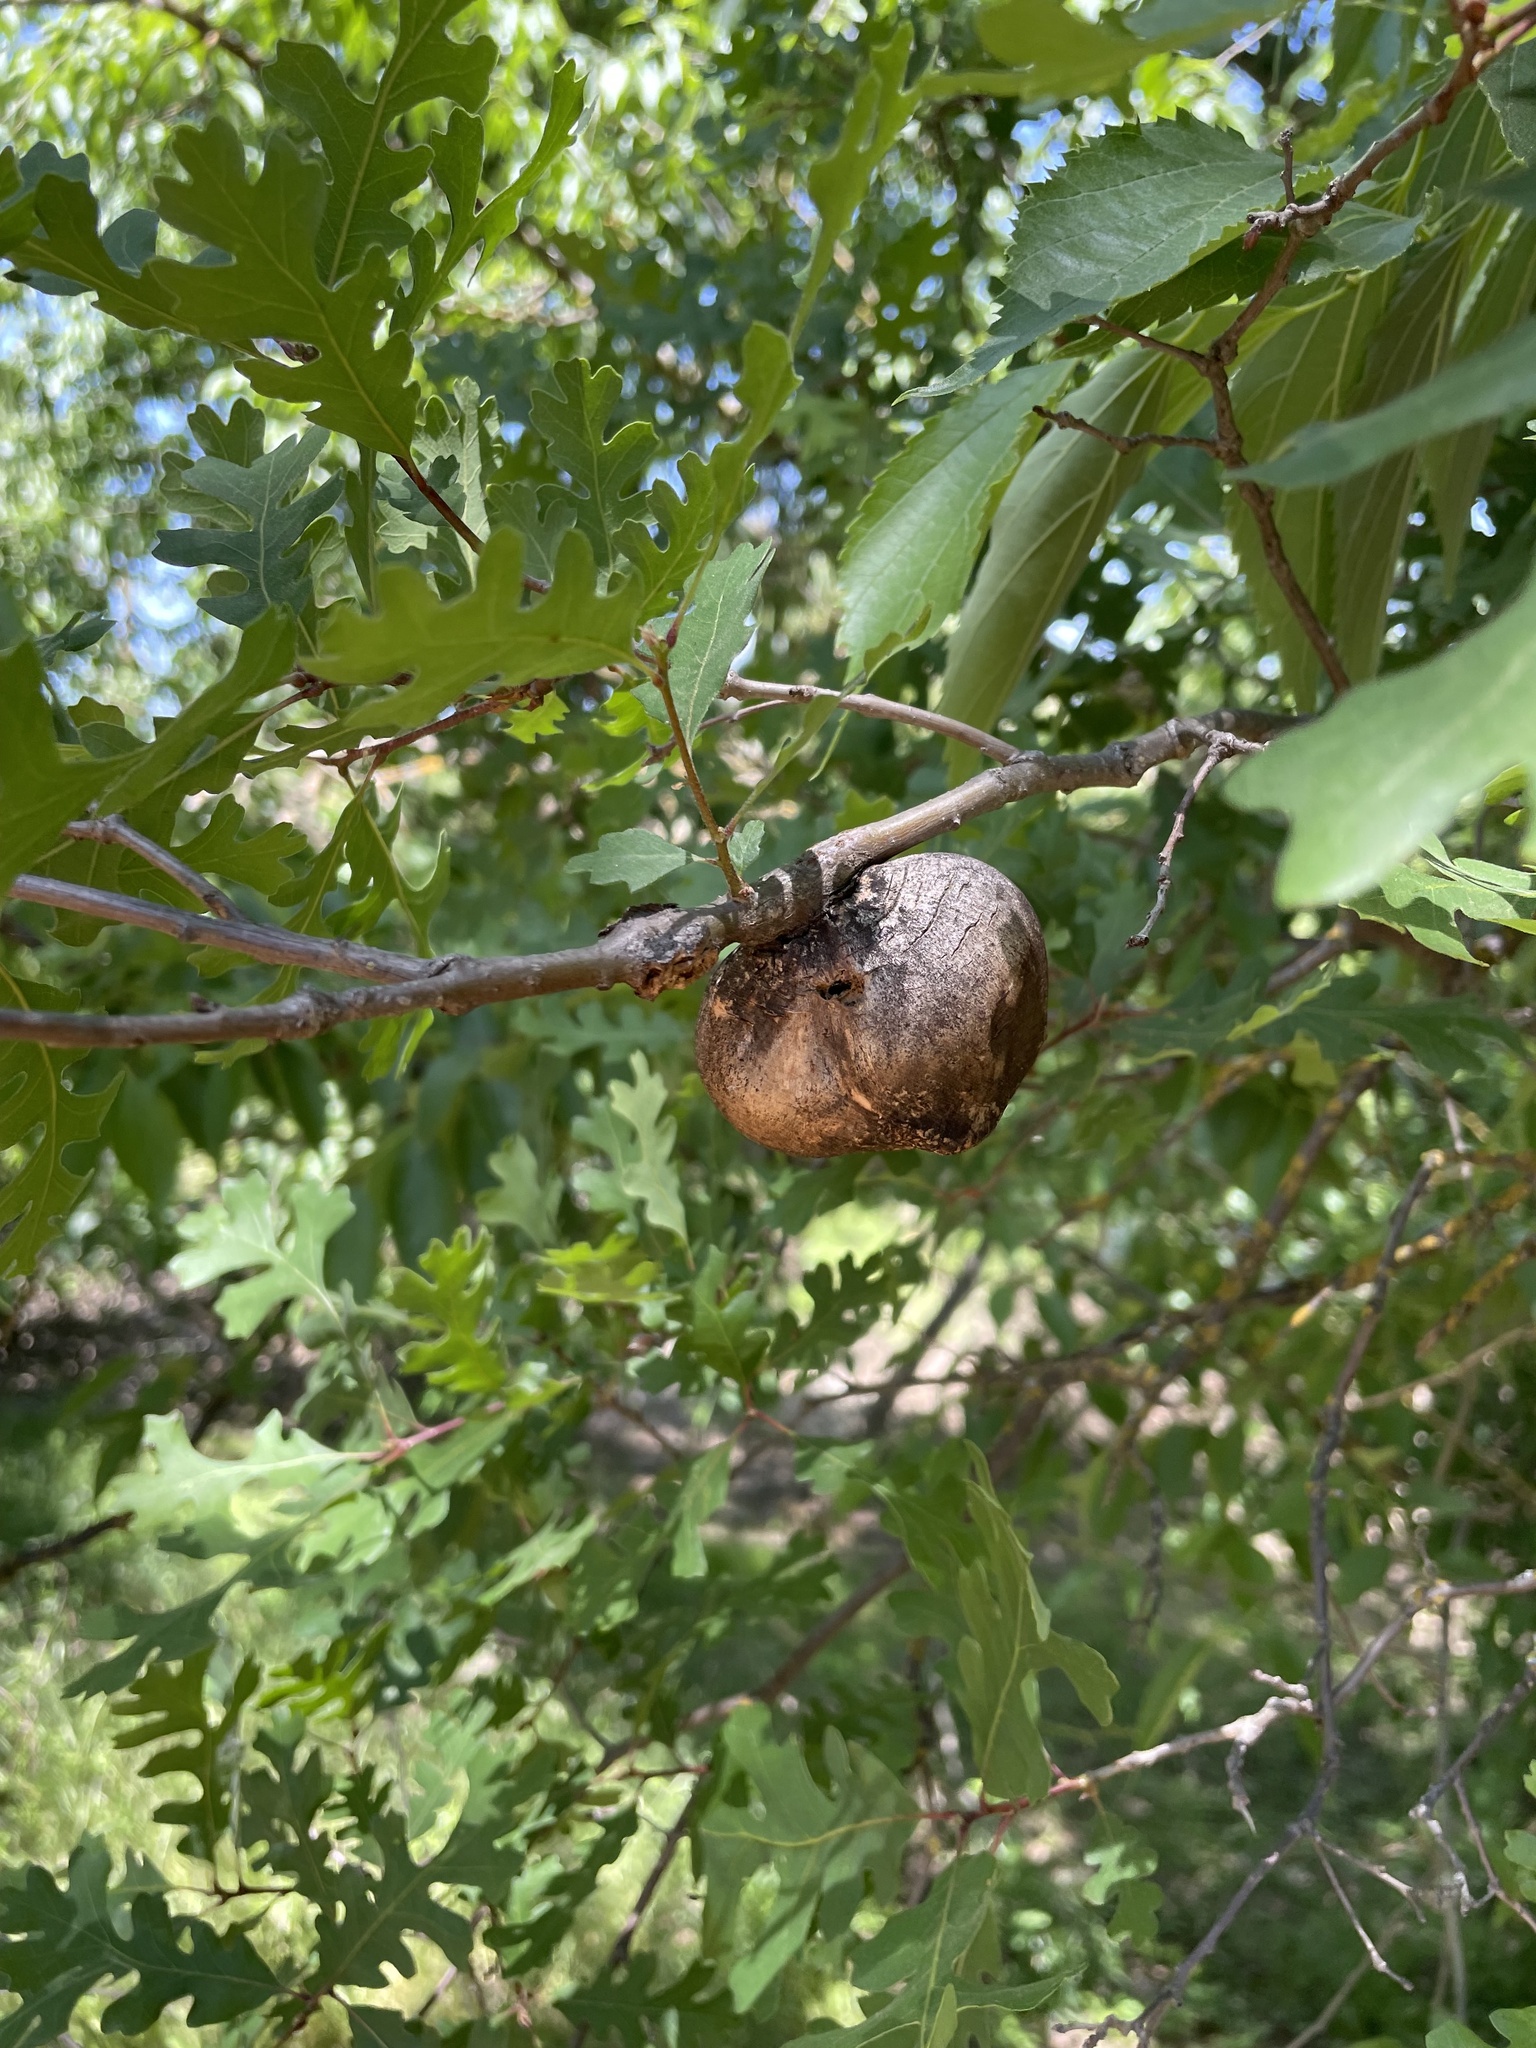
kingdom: Animalia
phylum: Arthropoda
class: Insecta
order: Hymenoptera
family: Cynipidae
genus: Andricus
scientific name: Andricus quercuscalifornicus
